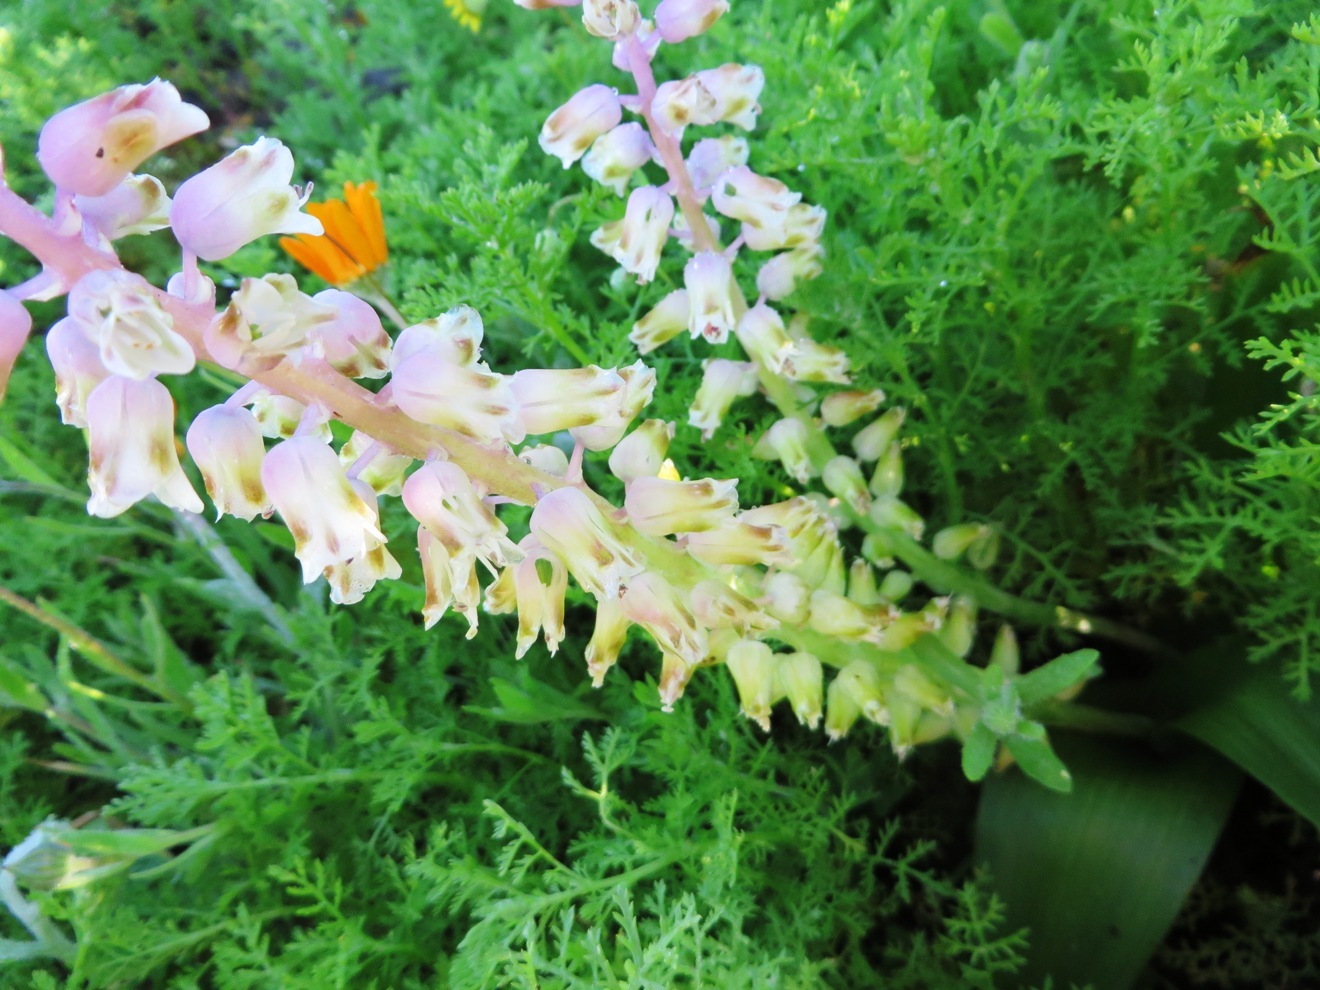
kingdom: Plantae
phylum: Tracheophyta
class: Liliopsida
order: Asparagales
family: Asparagaceae
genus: Lachenalia
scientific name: Lachenalia pallida
